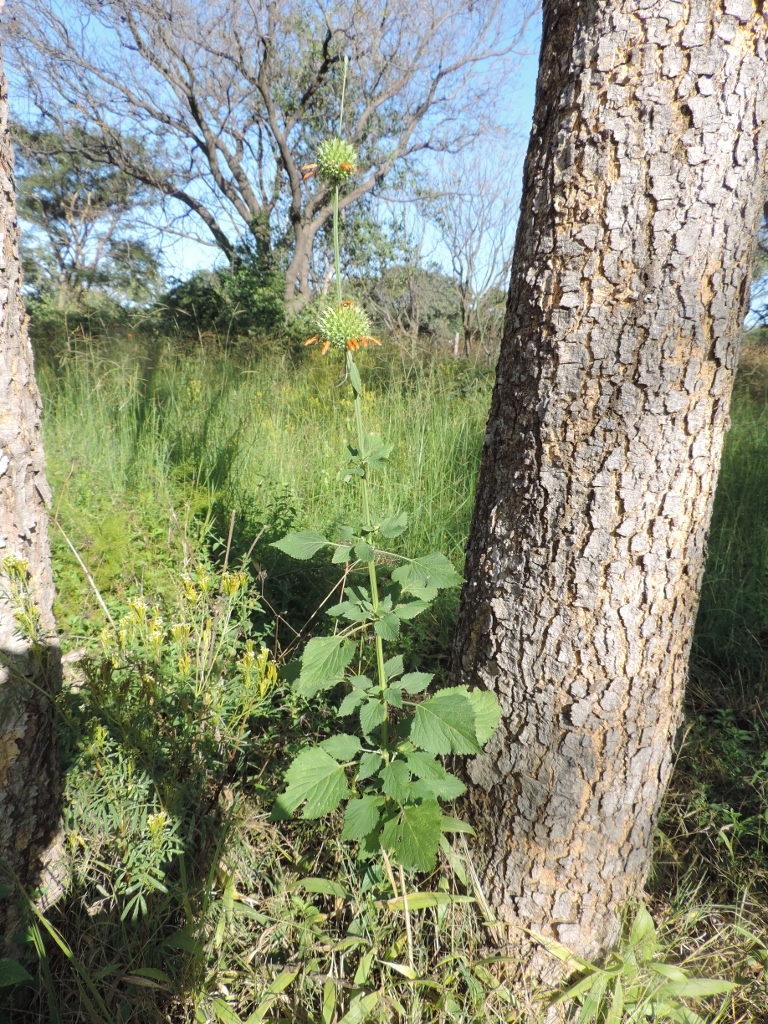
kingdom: Plantae
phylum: Tracheophyta
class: Magnoliopsida
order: Lamiales
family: Lamiaceae
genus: Leonotis
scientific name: Leonotis nepetifolia
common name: Christmas candlestick
